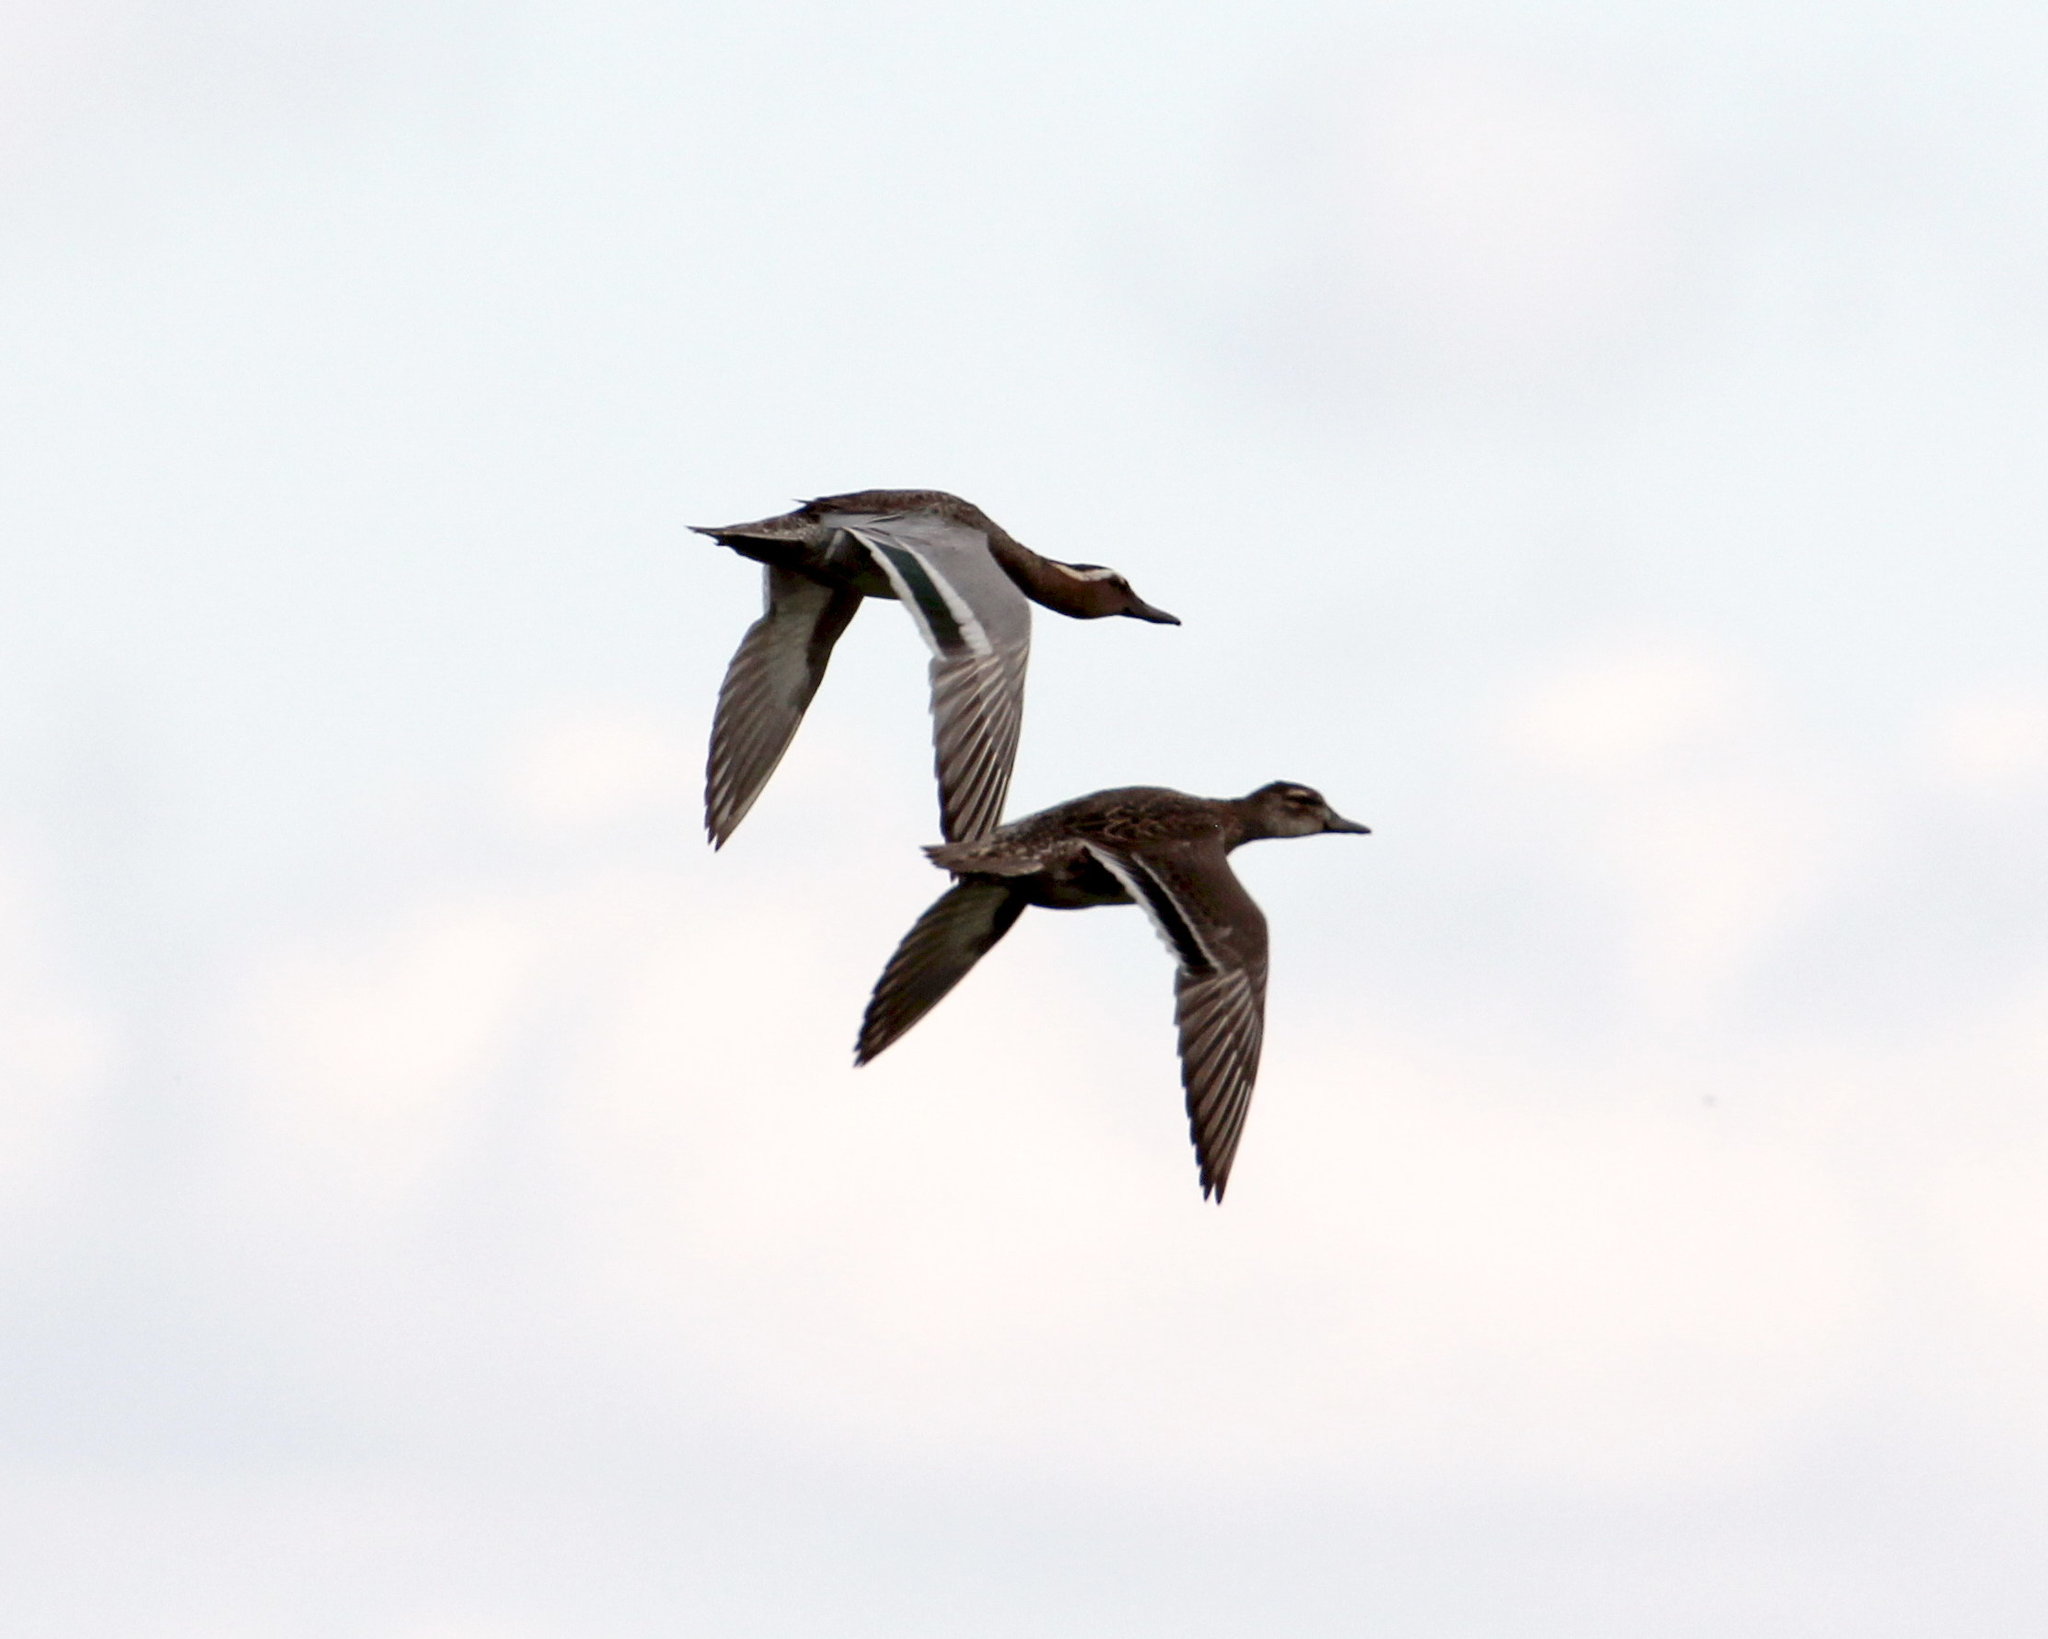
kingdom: Animalia
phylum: Chordata
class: Aves
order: Anseriformes
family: Anatidae
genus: Spatula
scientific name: Spatula querquedula
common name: Garganey
